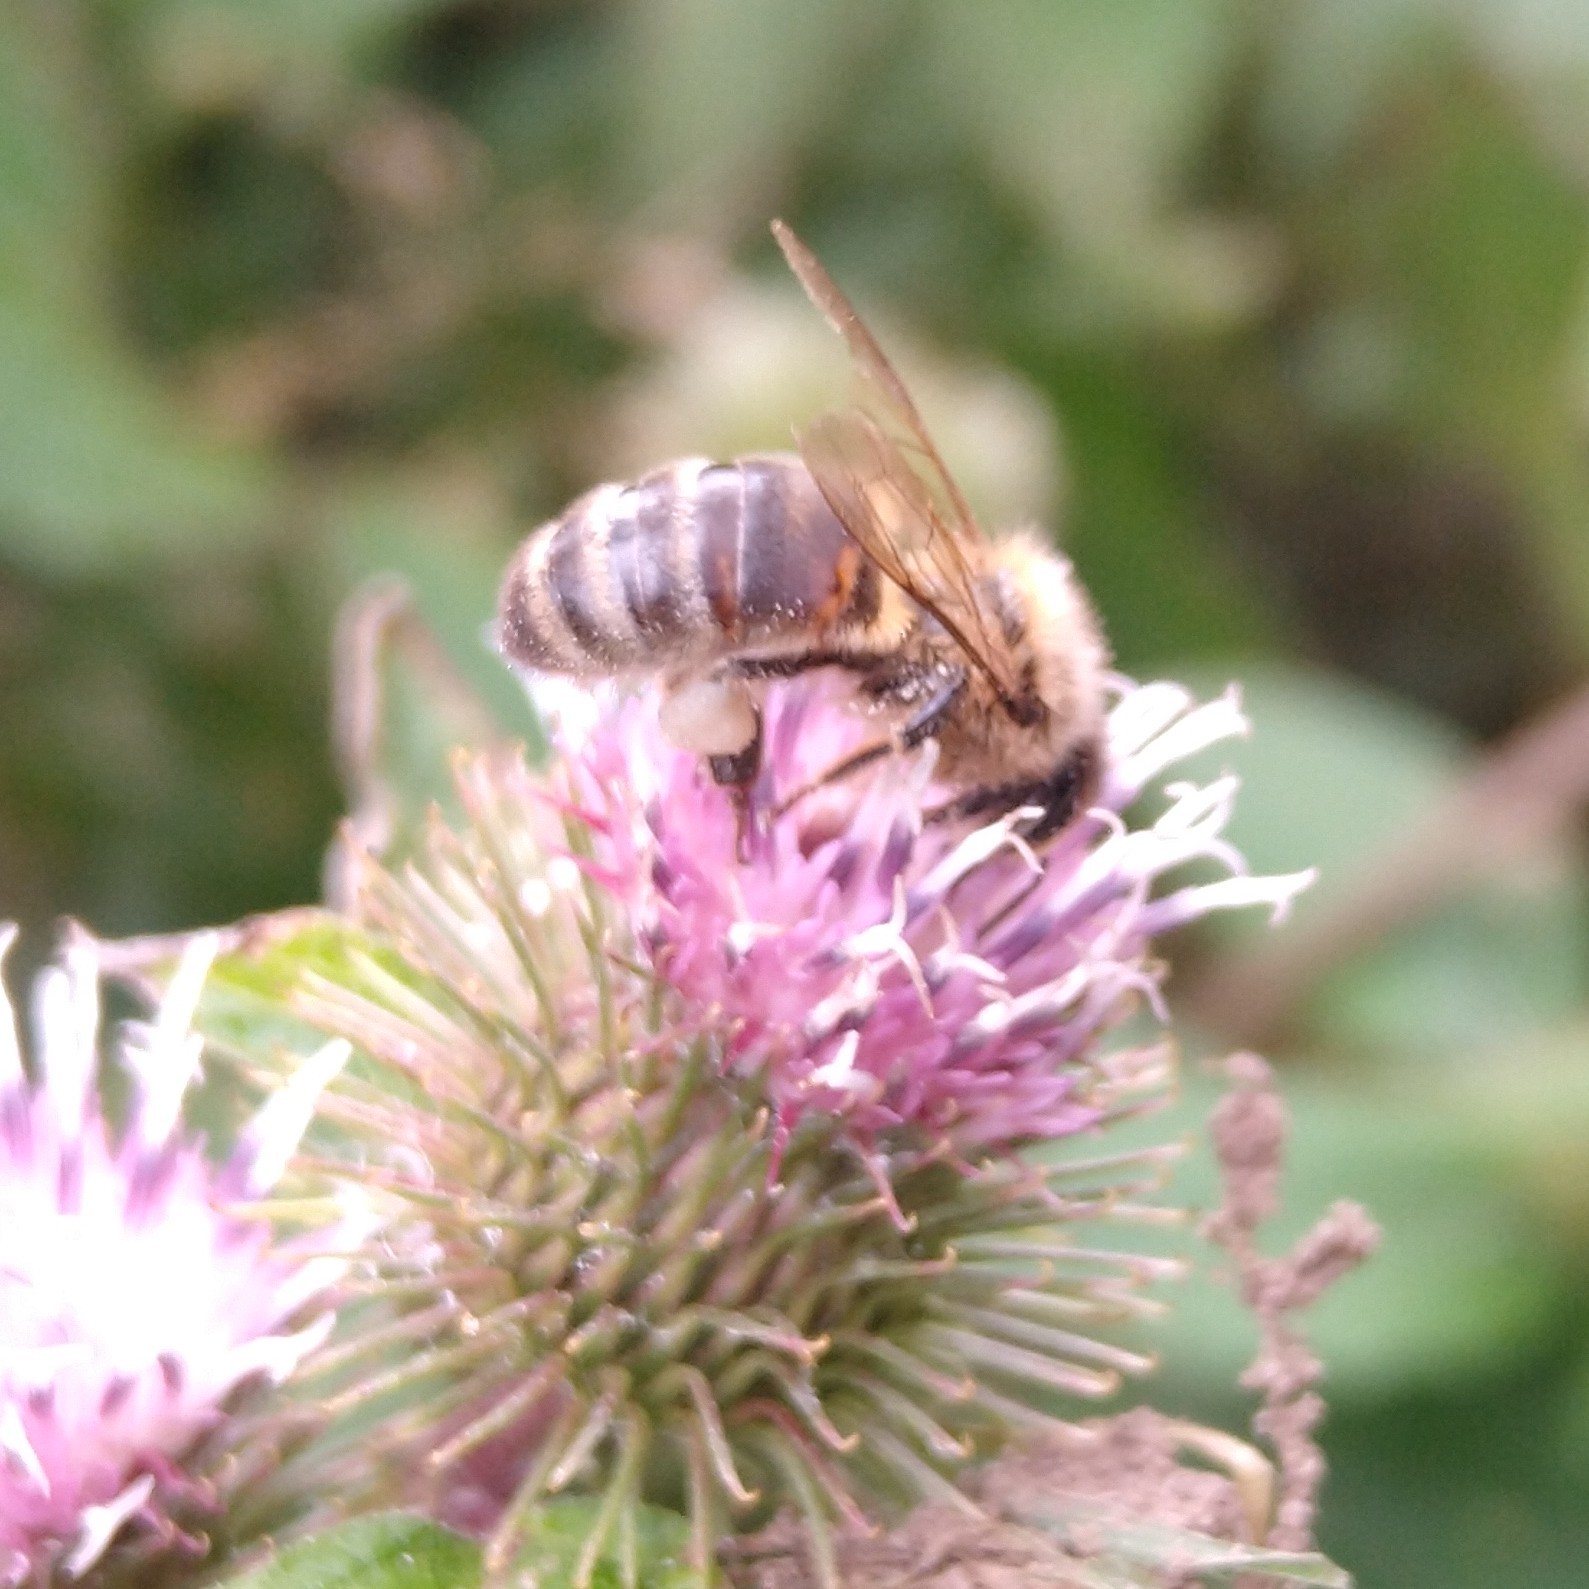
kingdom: Animalia
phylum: Arthropoda
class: Insecta
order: Hymenoptera
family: Apidae
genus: Apis
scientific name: Apis mellifera
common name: Honey bee
